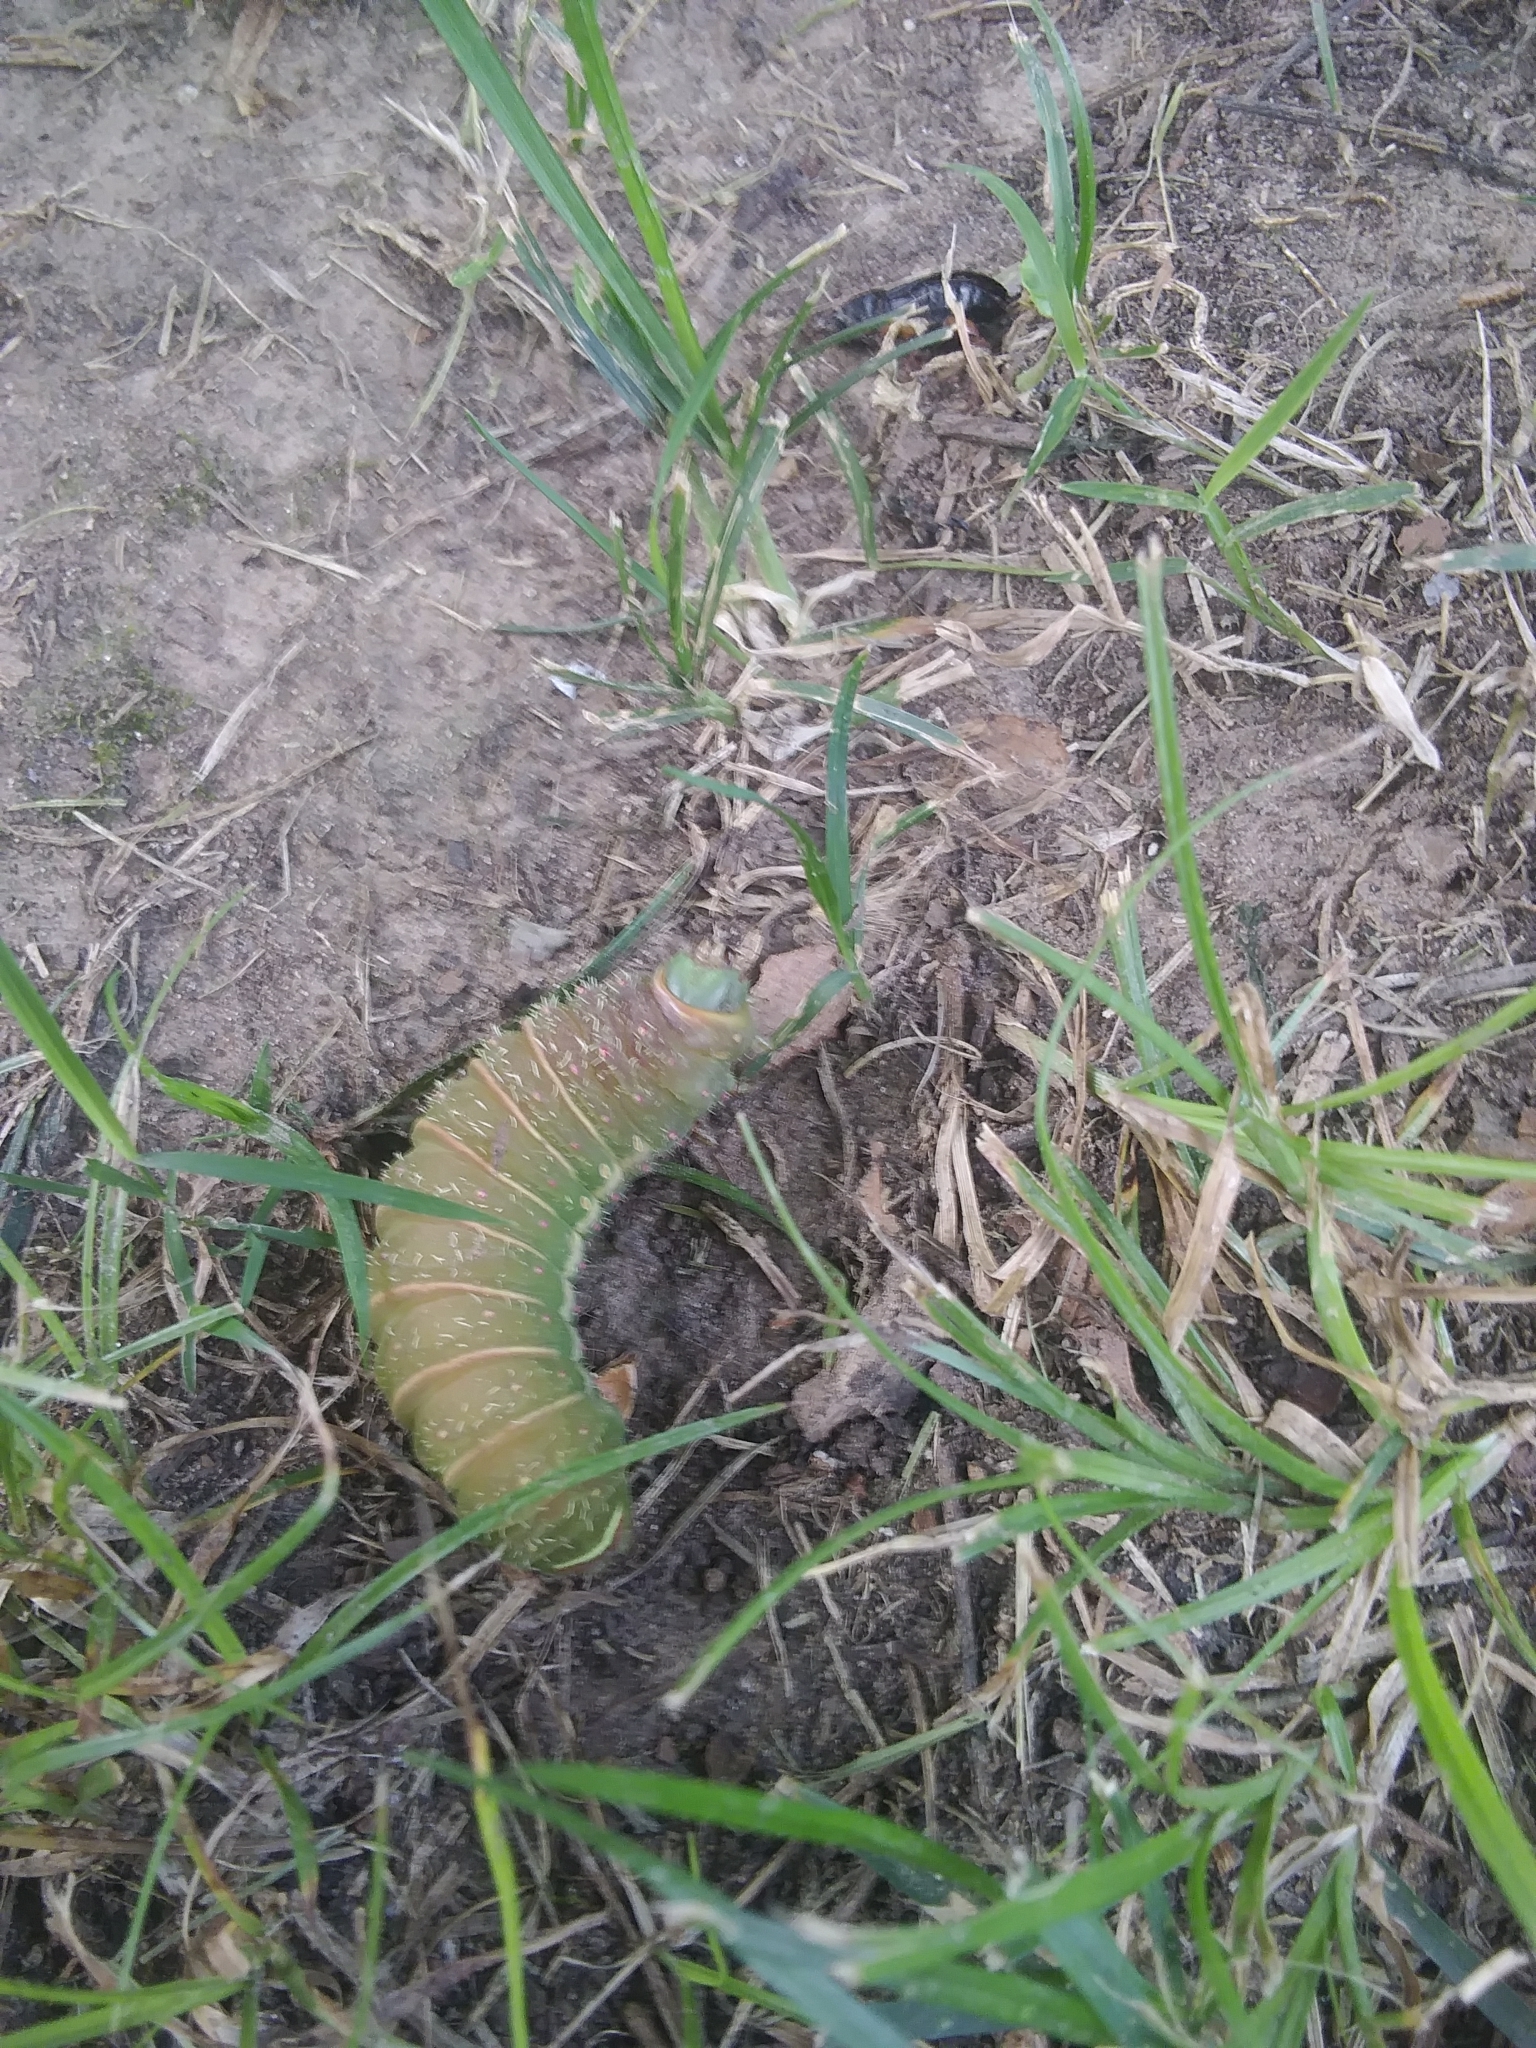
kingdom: Animalia
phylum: Arthropoda
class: Insecta
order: Lepidoptera
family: Saturniidae
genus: Actias
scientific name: Actias luna
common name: Luna moth
